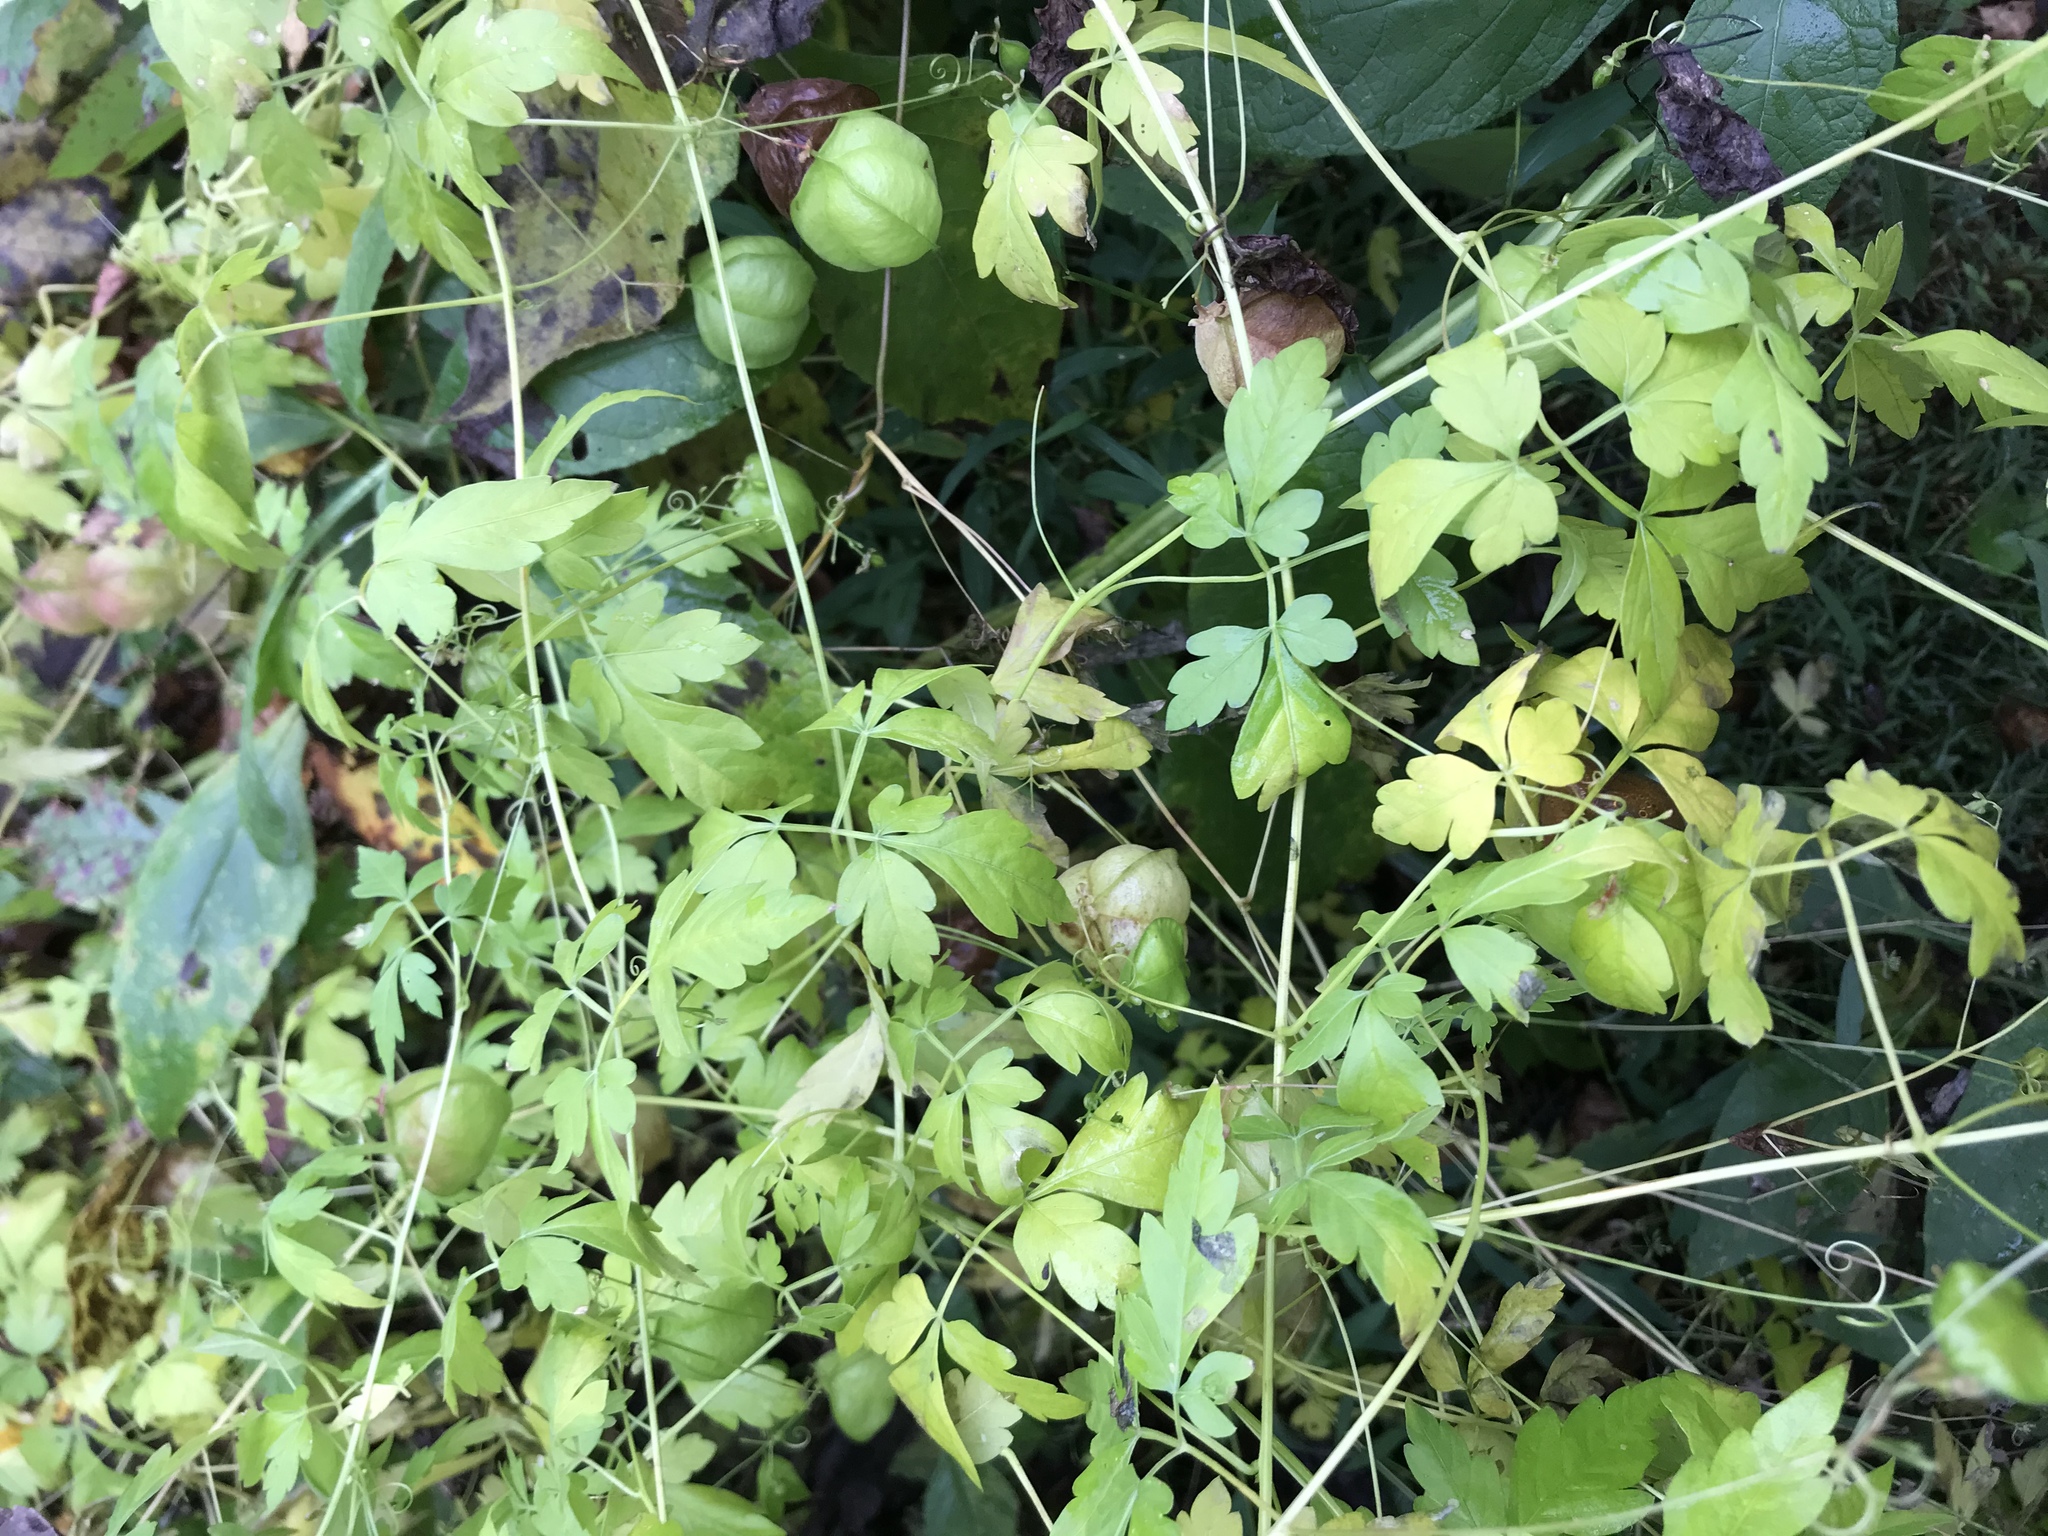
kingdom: Plantae
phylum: Tracheophyta
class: Magnoliopsida
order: Sapindales
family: Sapindaceae
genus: Cardiospermum
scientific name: Cardiospermum halicacabum
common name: Balloon vine
